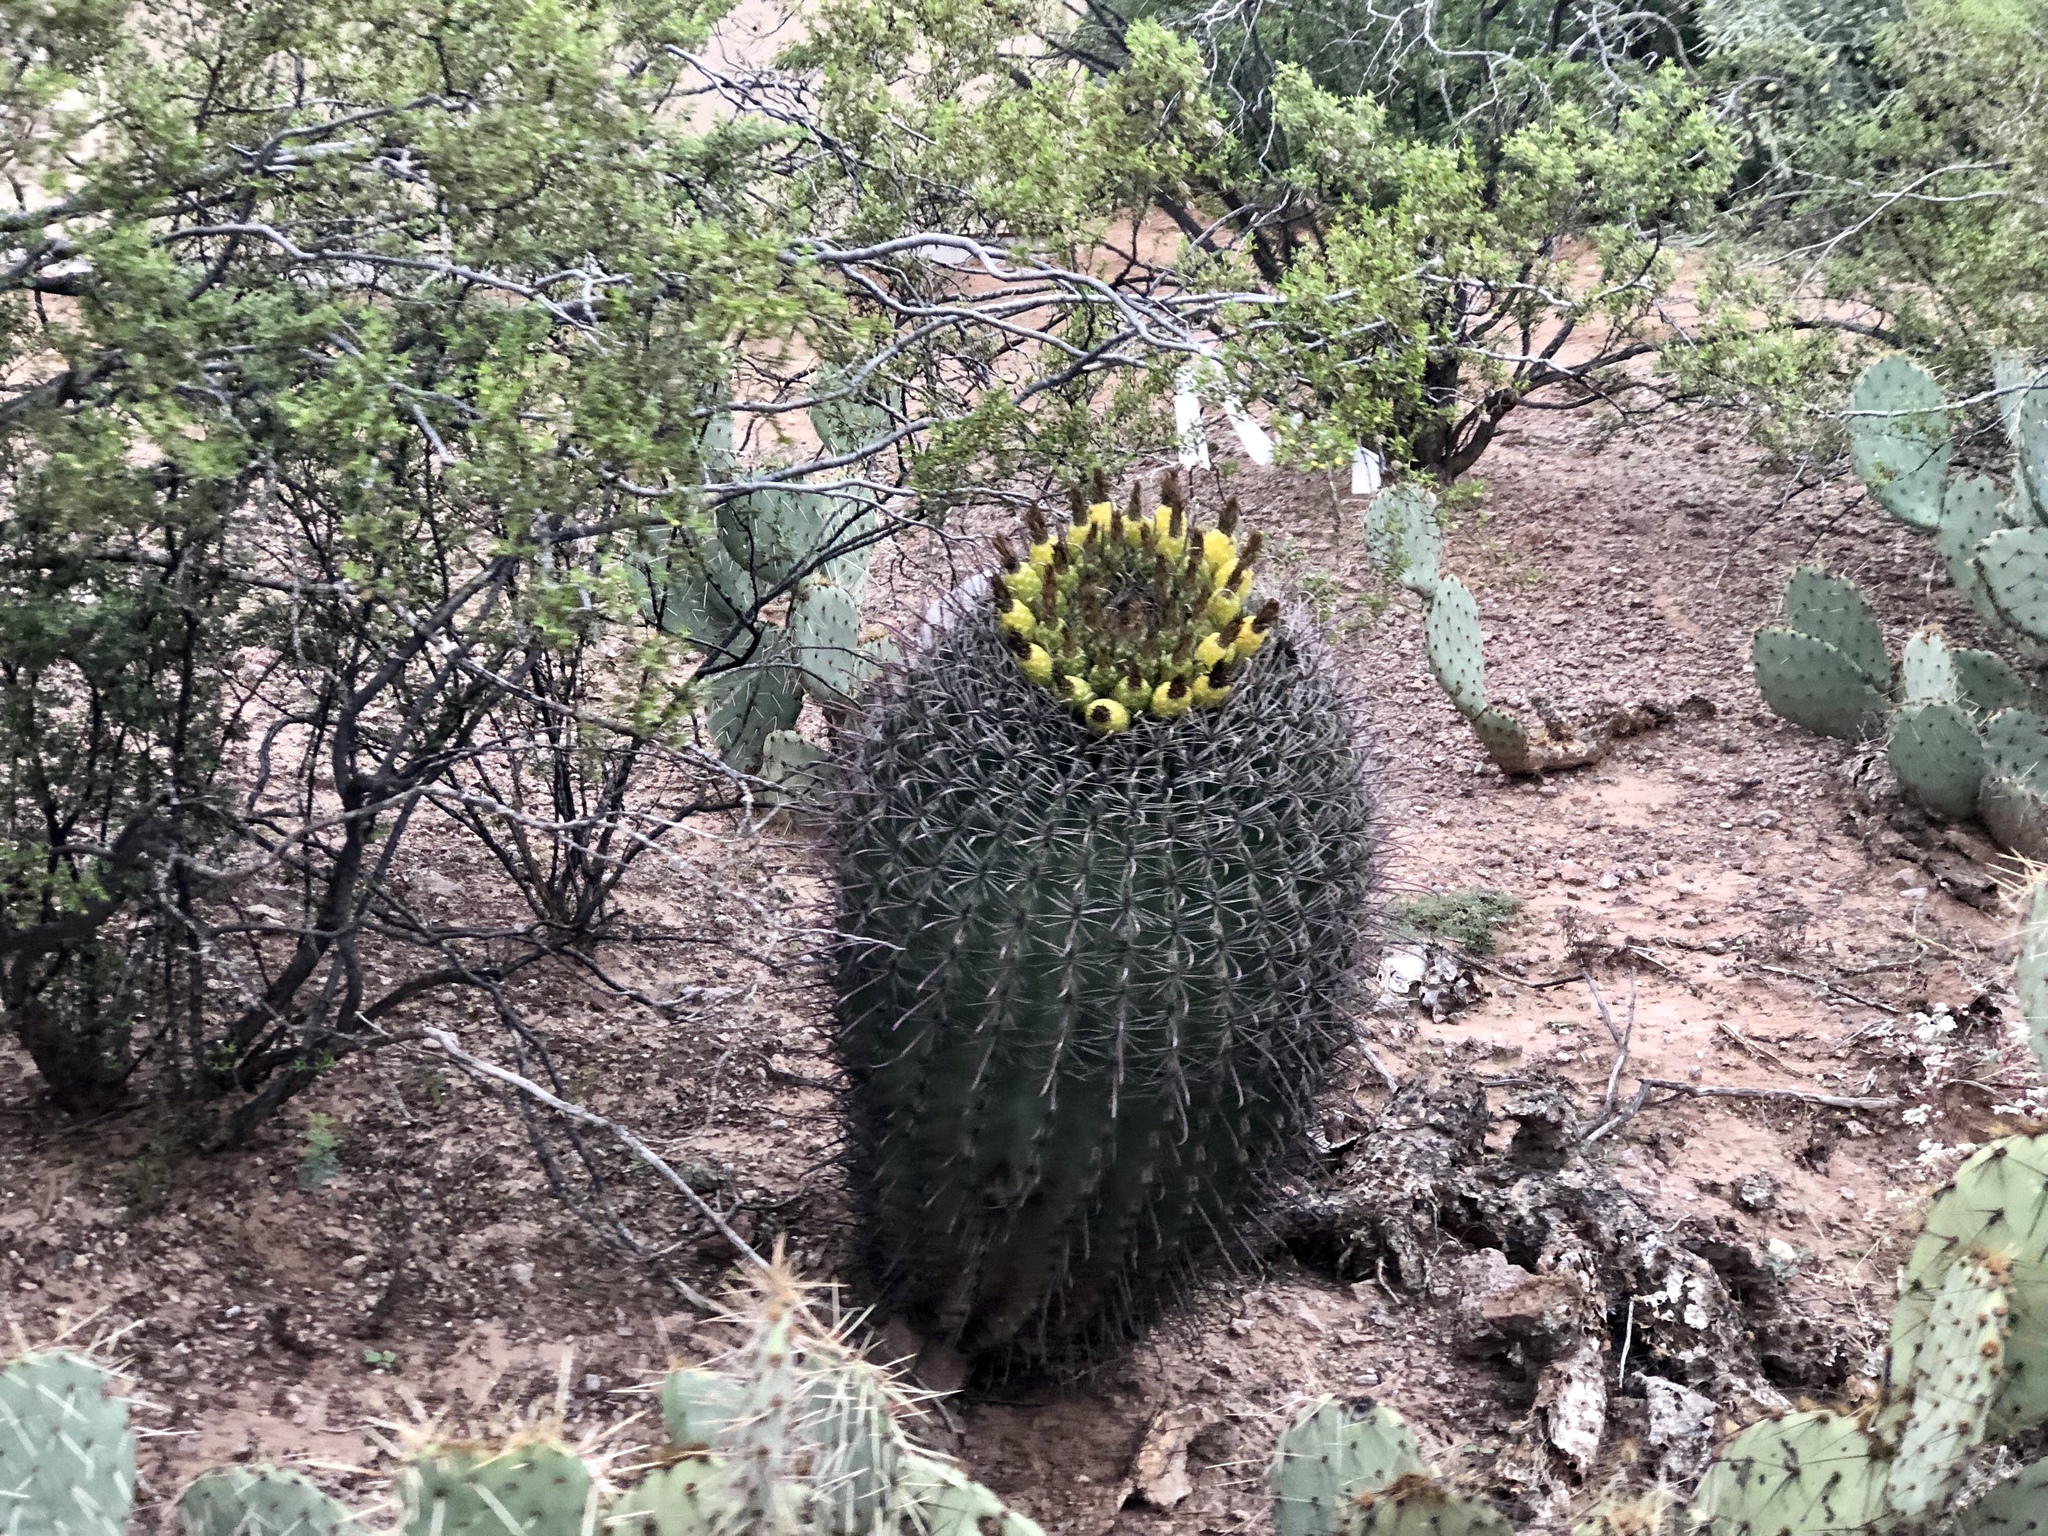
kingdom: Plantae
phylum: Tracheophyta
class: Magnoliopsida
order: Caryophyllales
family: Cactaceae
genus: Ferocactus
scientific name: Ferocactus wislizeni
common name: Candy barrel cactus
